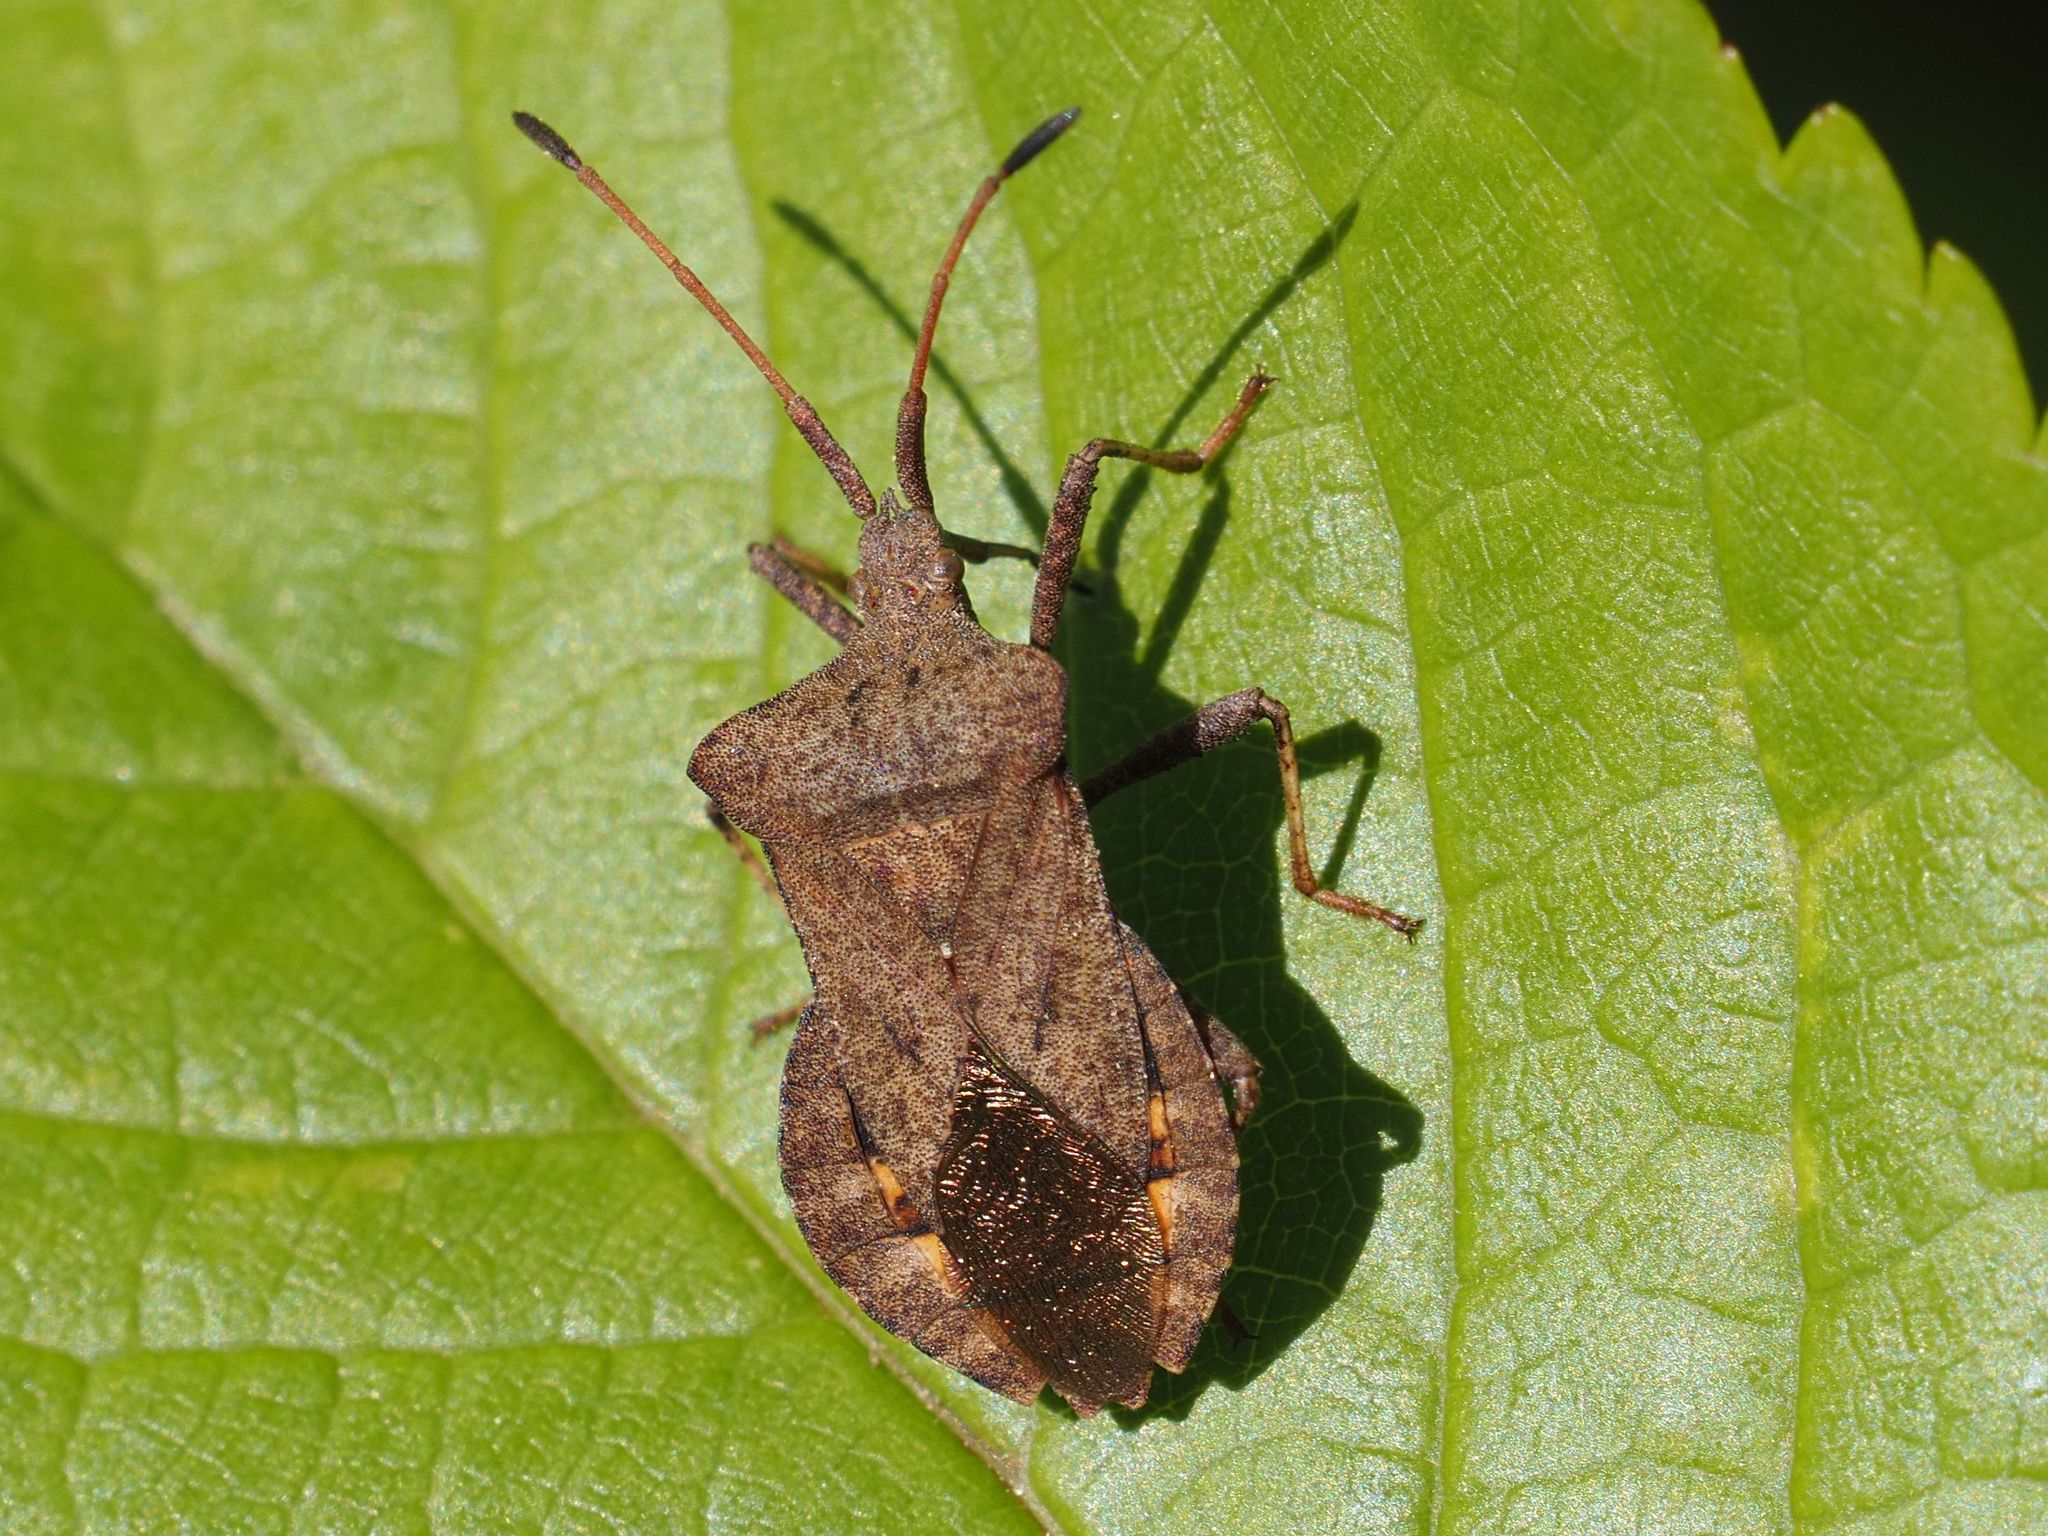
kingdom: Animalia
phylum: Arthropoda
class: Insecta
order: Hemiptera
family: Coreidae
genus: Coreus
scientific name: Coreus marginatus
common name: Dock bug
